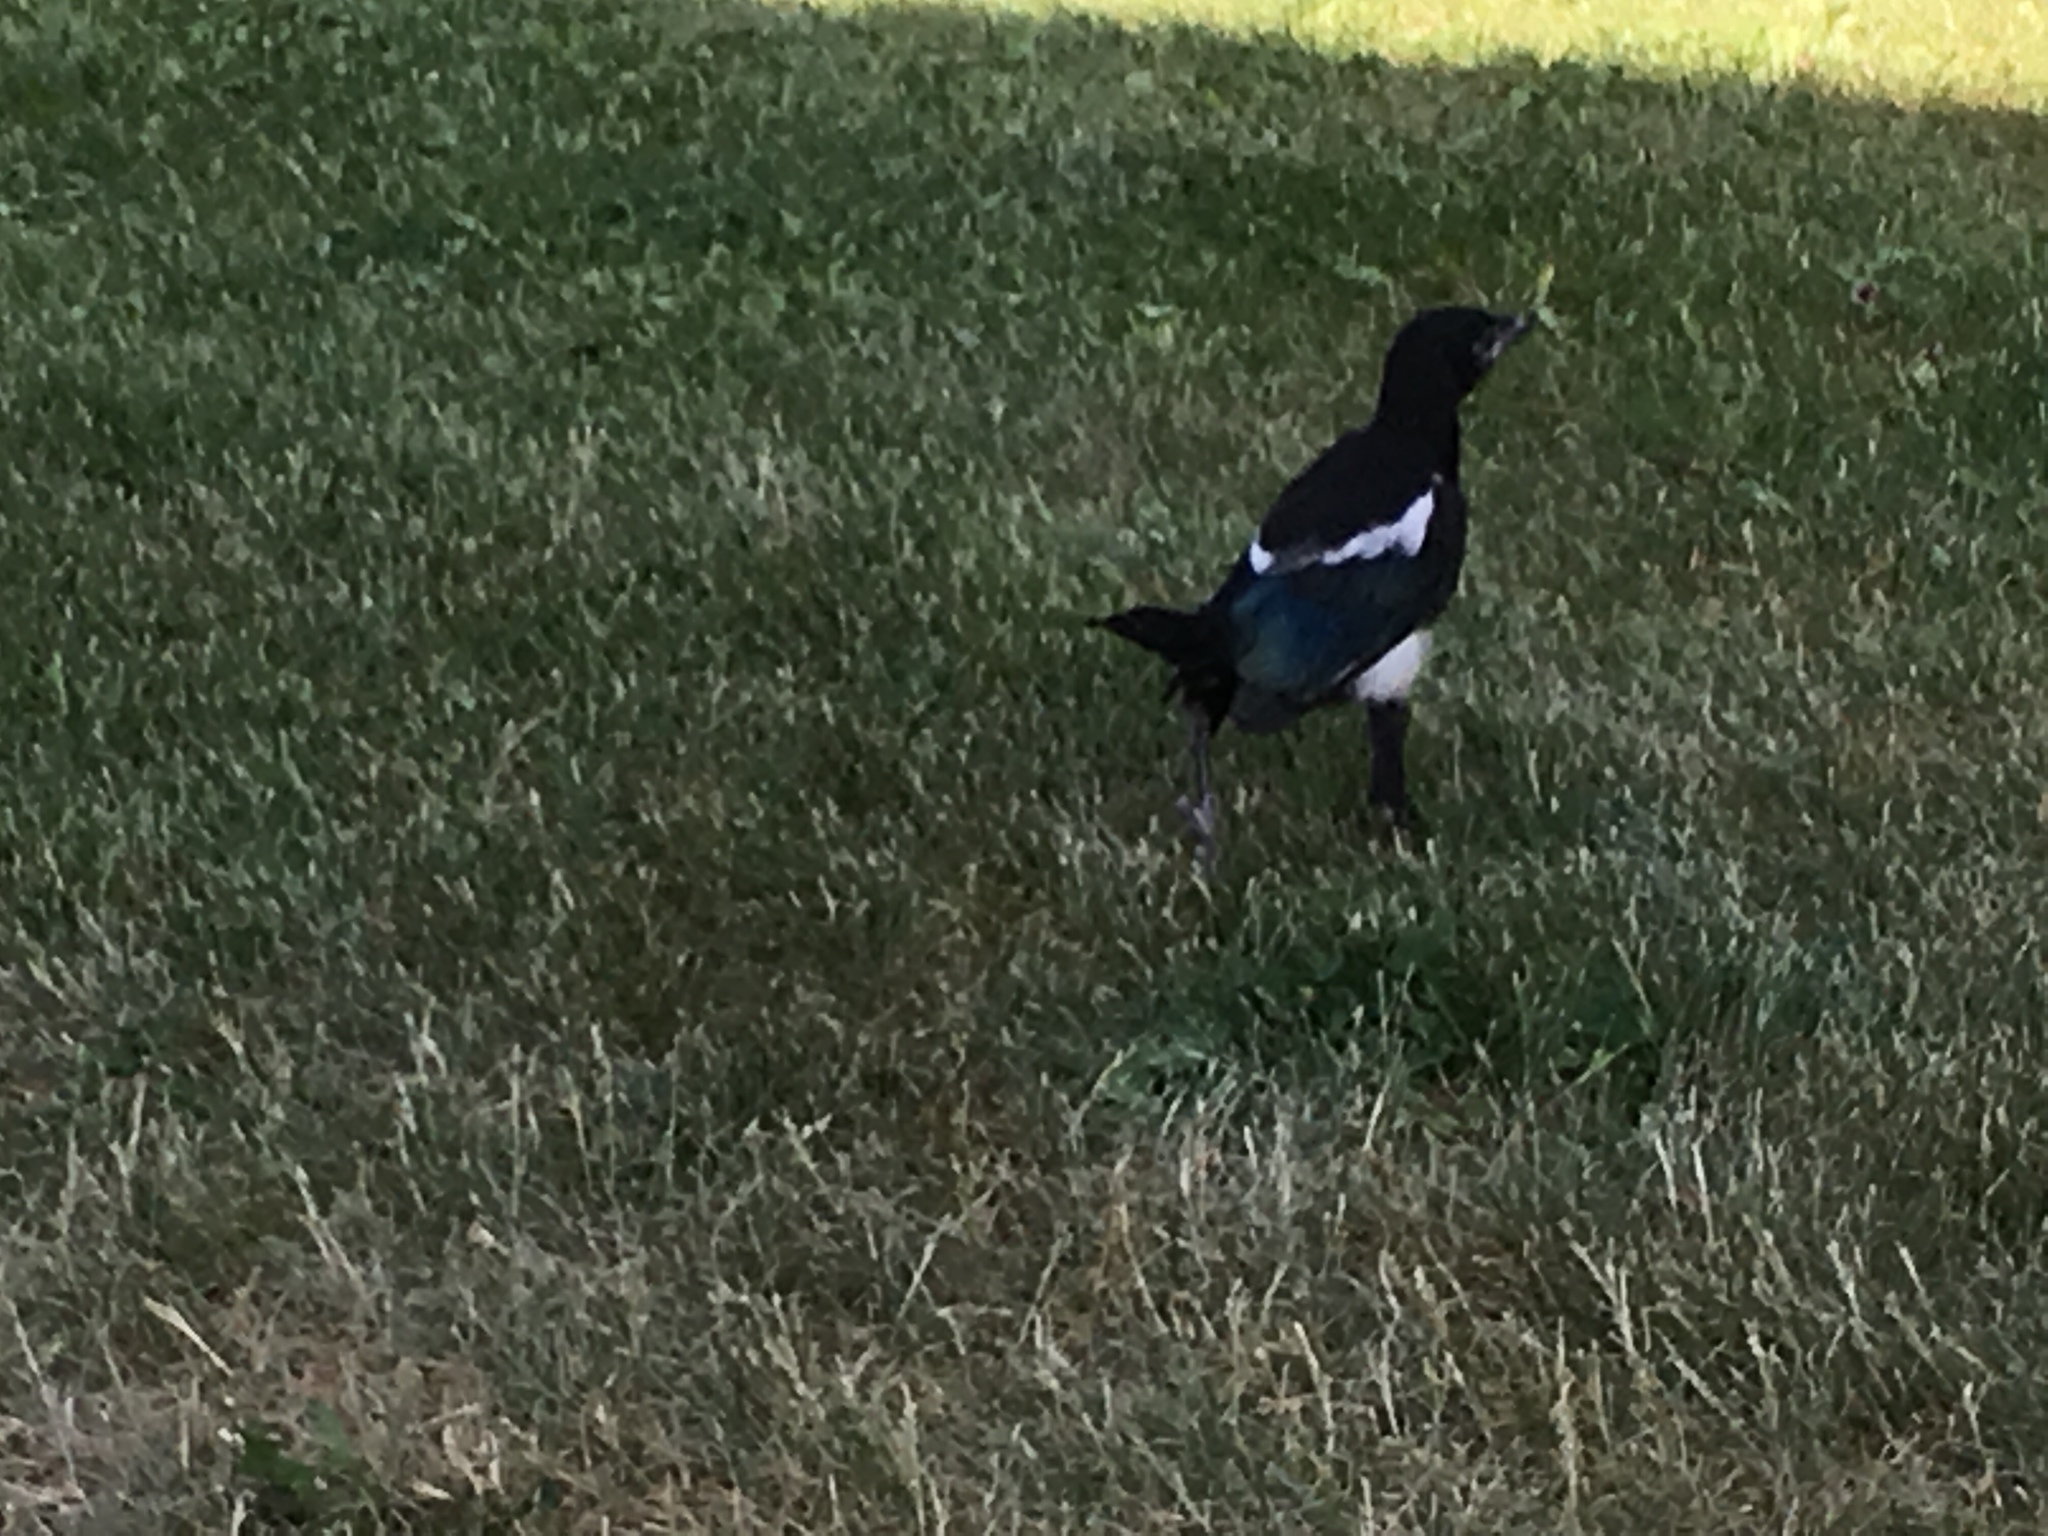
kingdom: Animalia
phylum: Chordata
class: Aves
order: Passeriformes
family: Corvidae
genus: Pica
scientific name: Pica hudsonia
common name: Black-billed magpie
